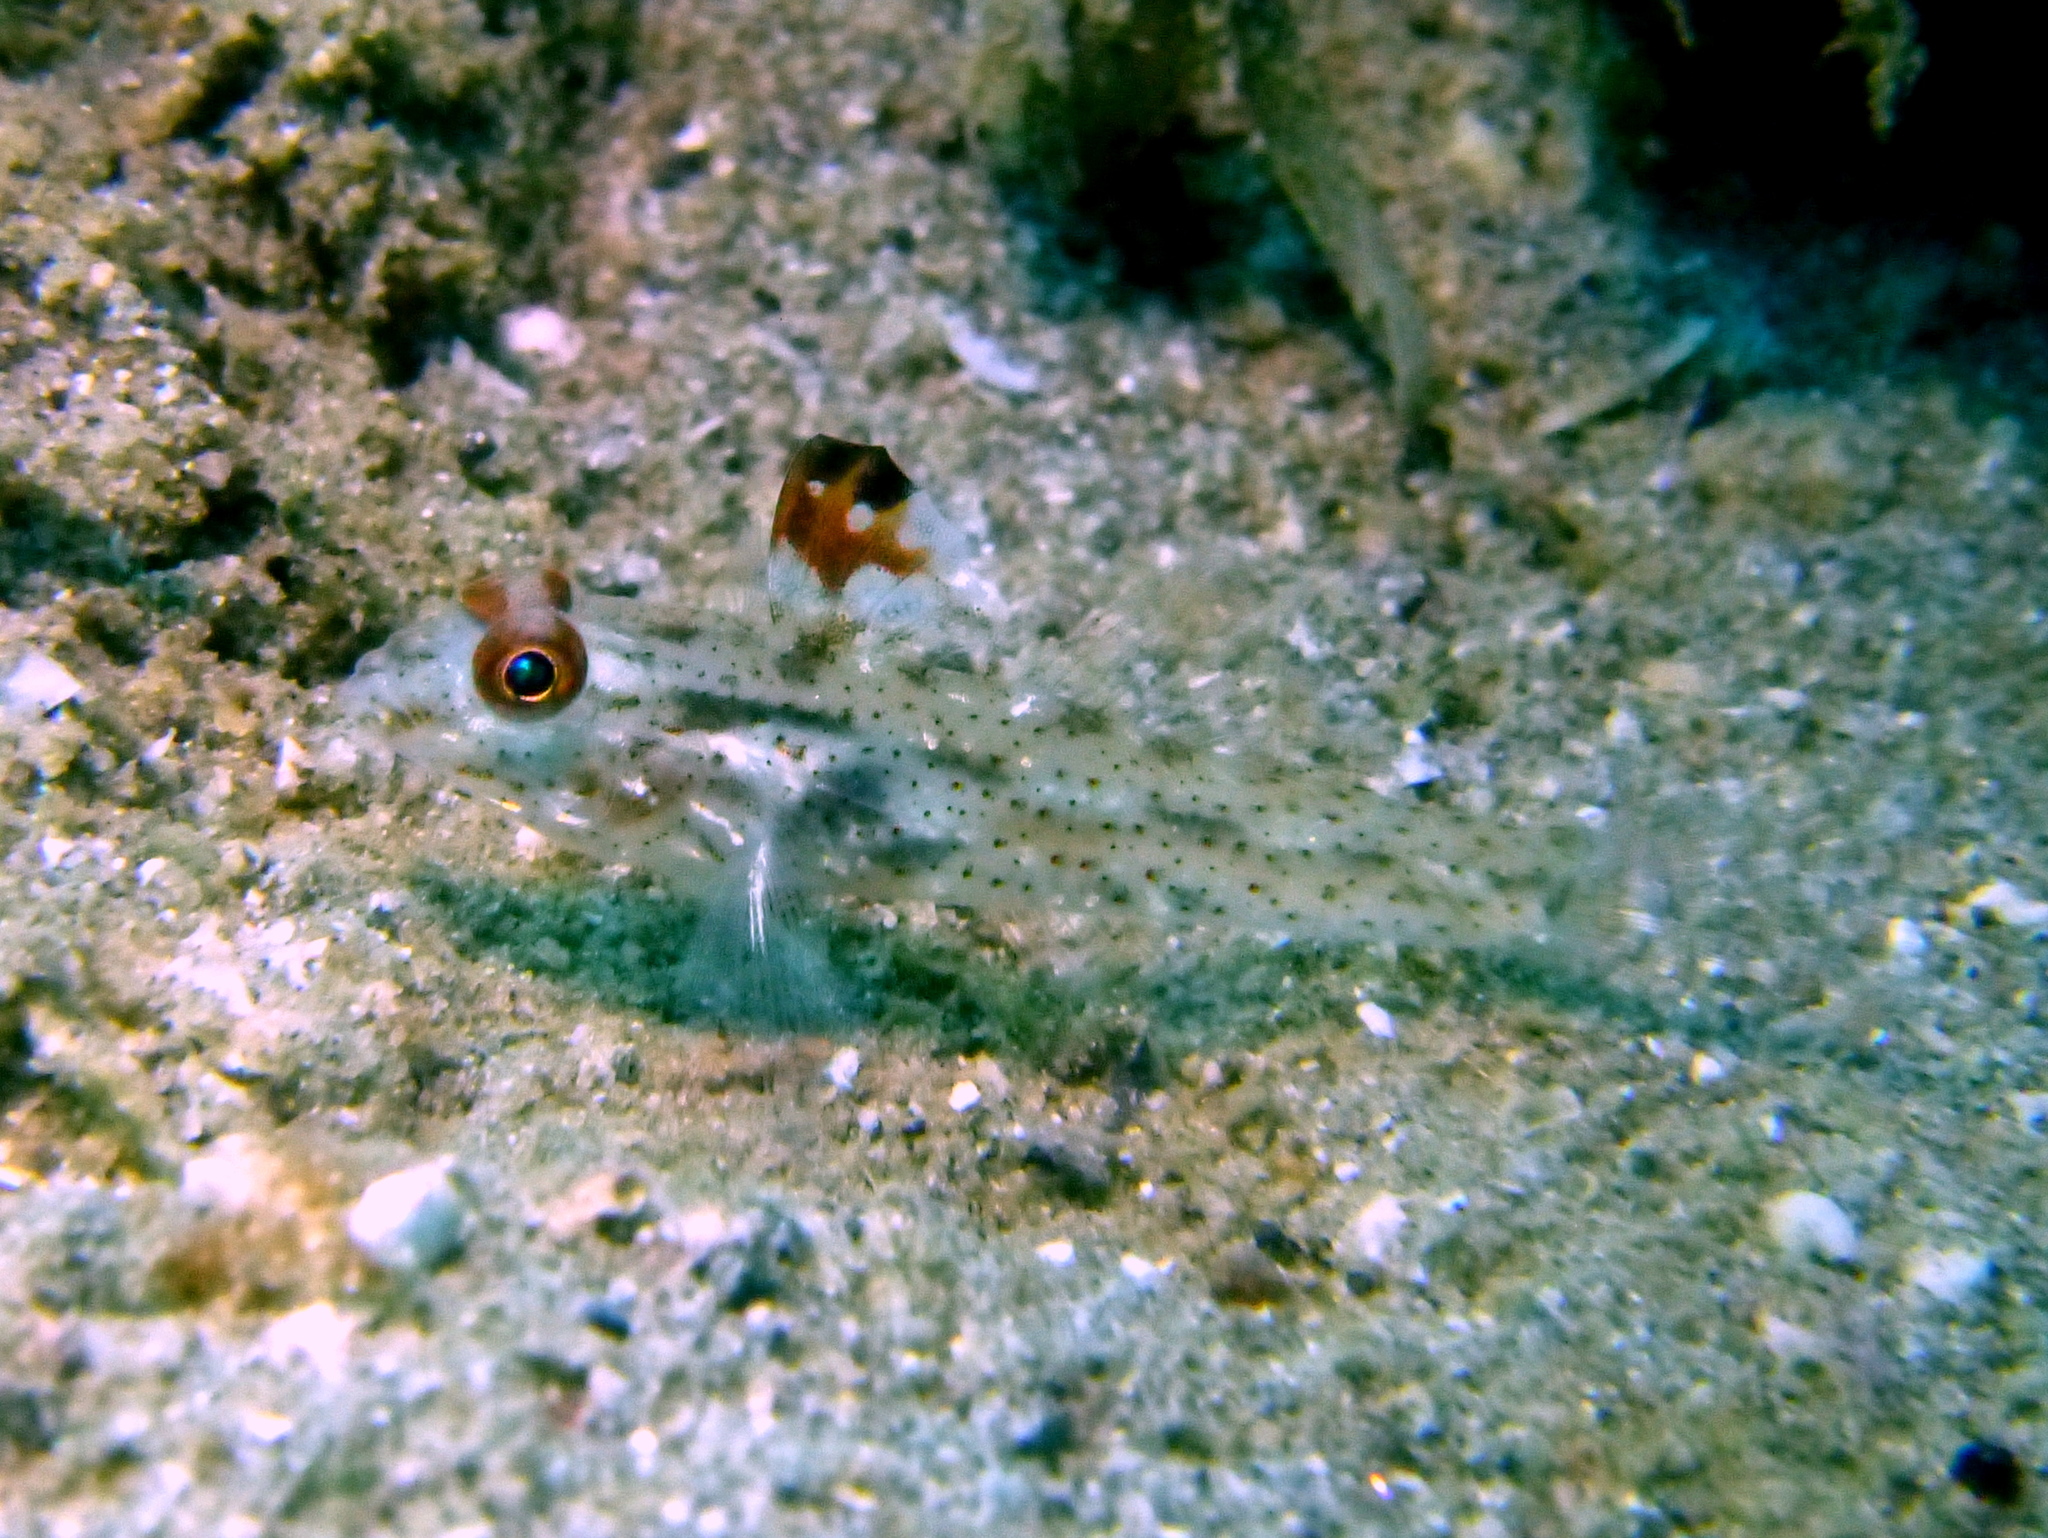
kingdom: Animalia
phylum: Chordata
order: Perciformes
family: Gobiidae
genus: Fusigobius
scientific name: Fusigobius signipinnis
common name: Flasher sand-goby
